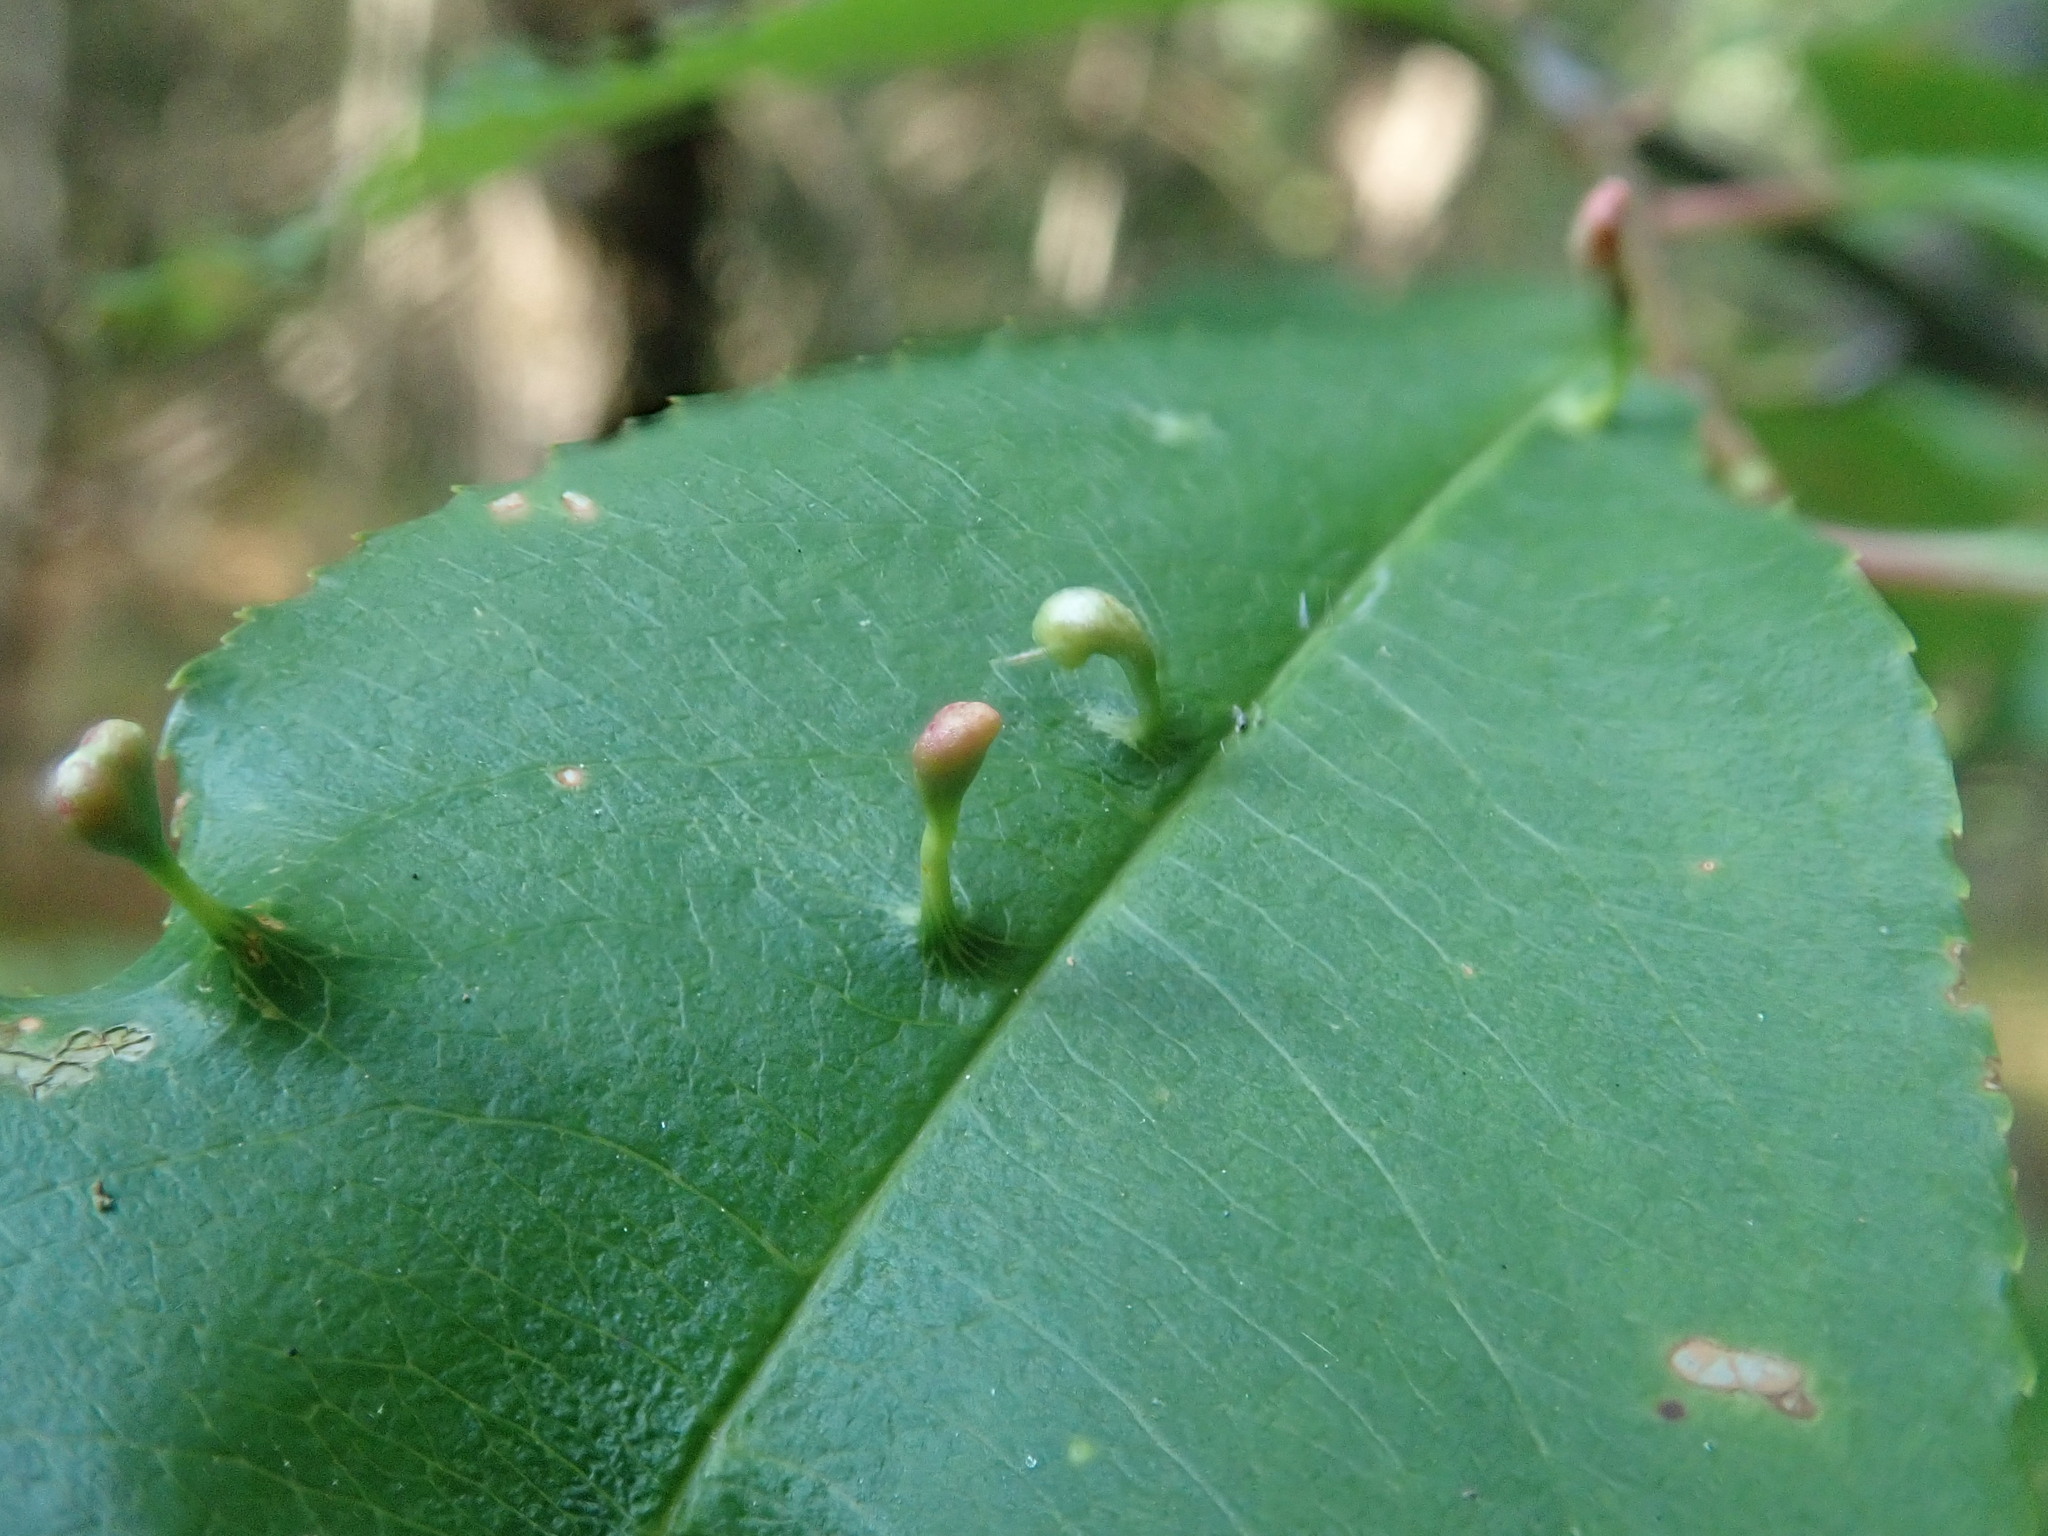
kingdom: Animalia
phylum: Arthropoda
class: Arachnida
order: Trombidiformes
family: Eriophyidae
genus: Eriophyes
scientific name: Eriophyes
